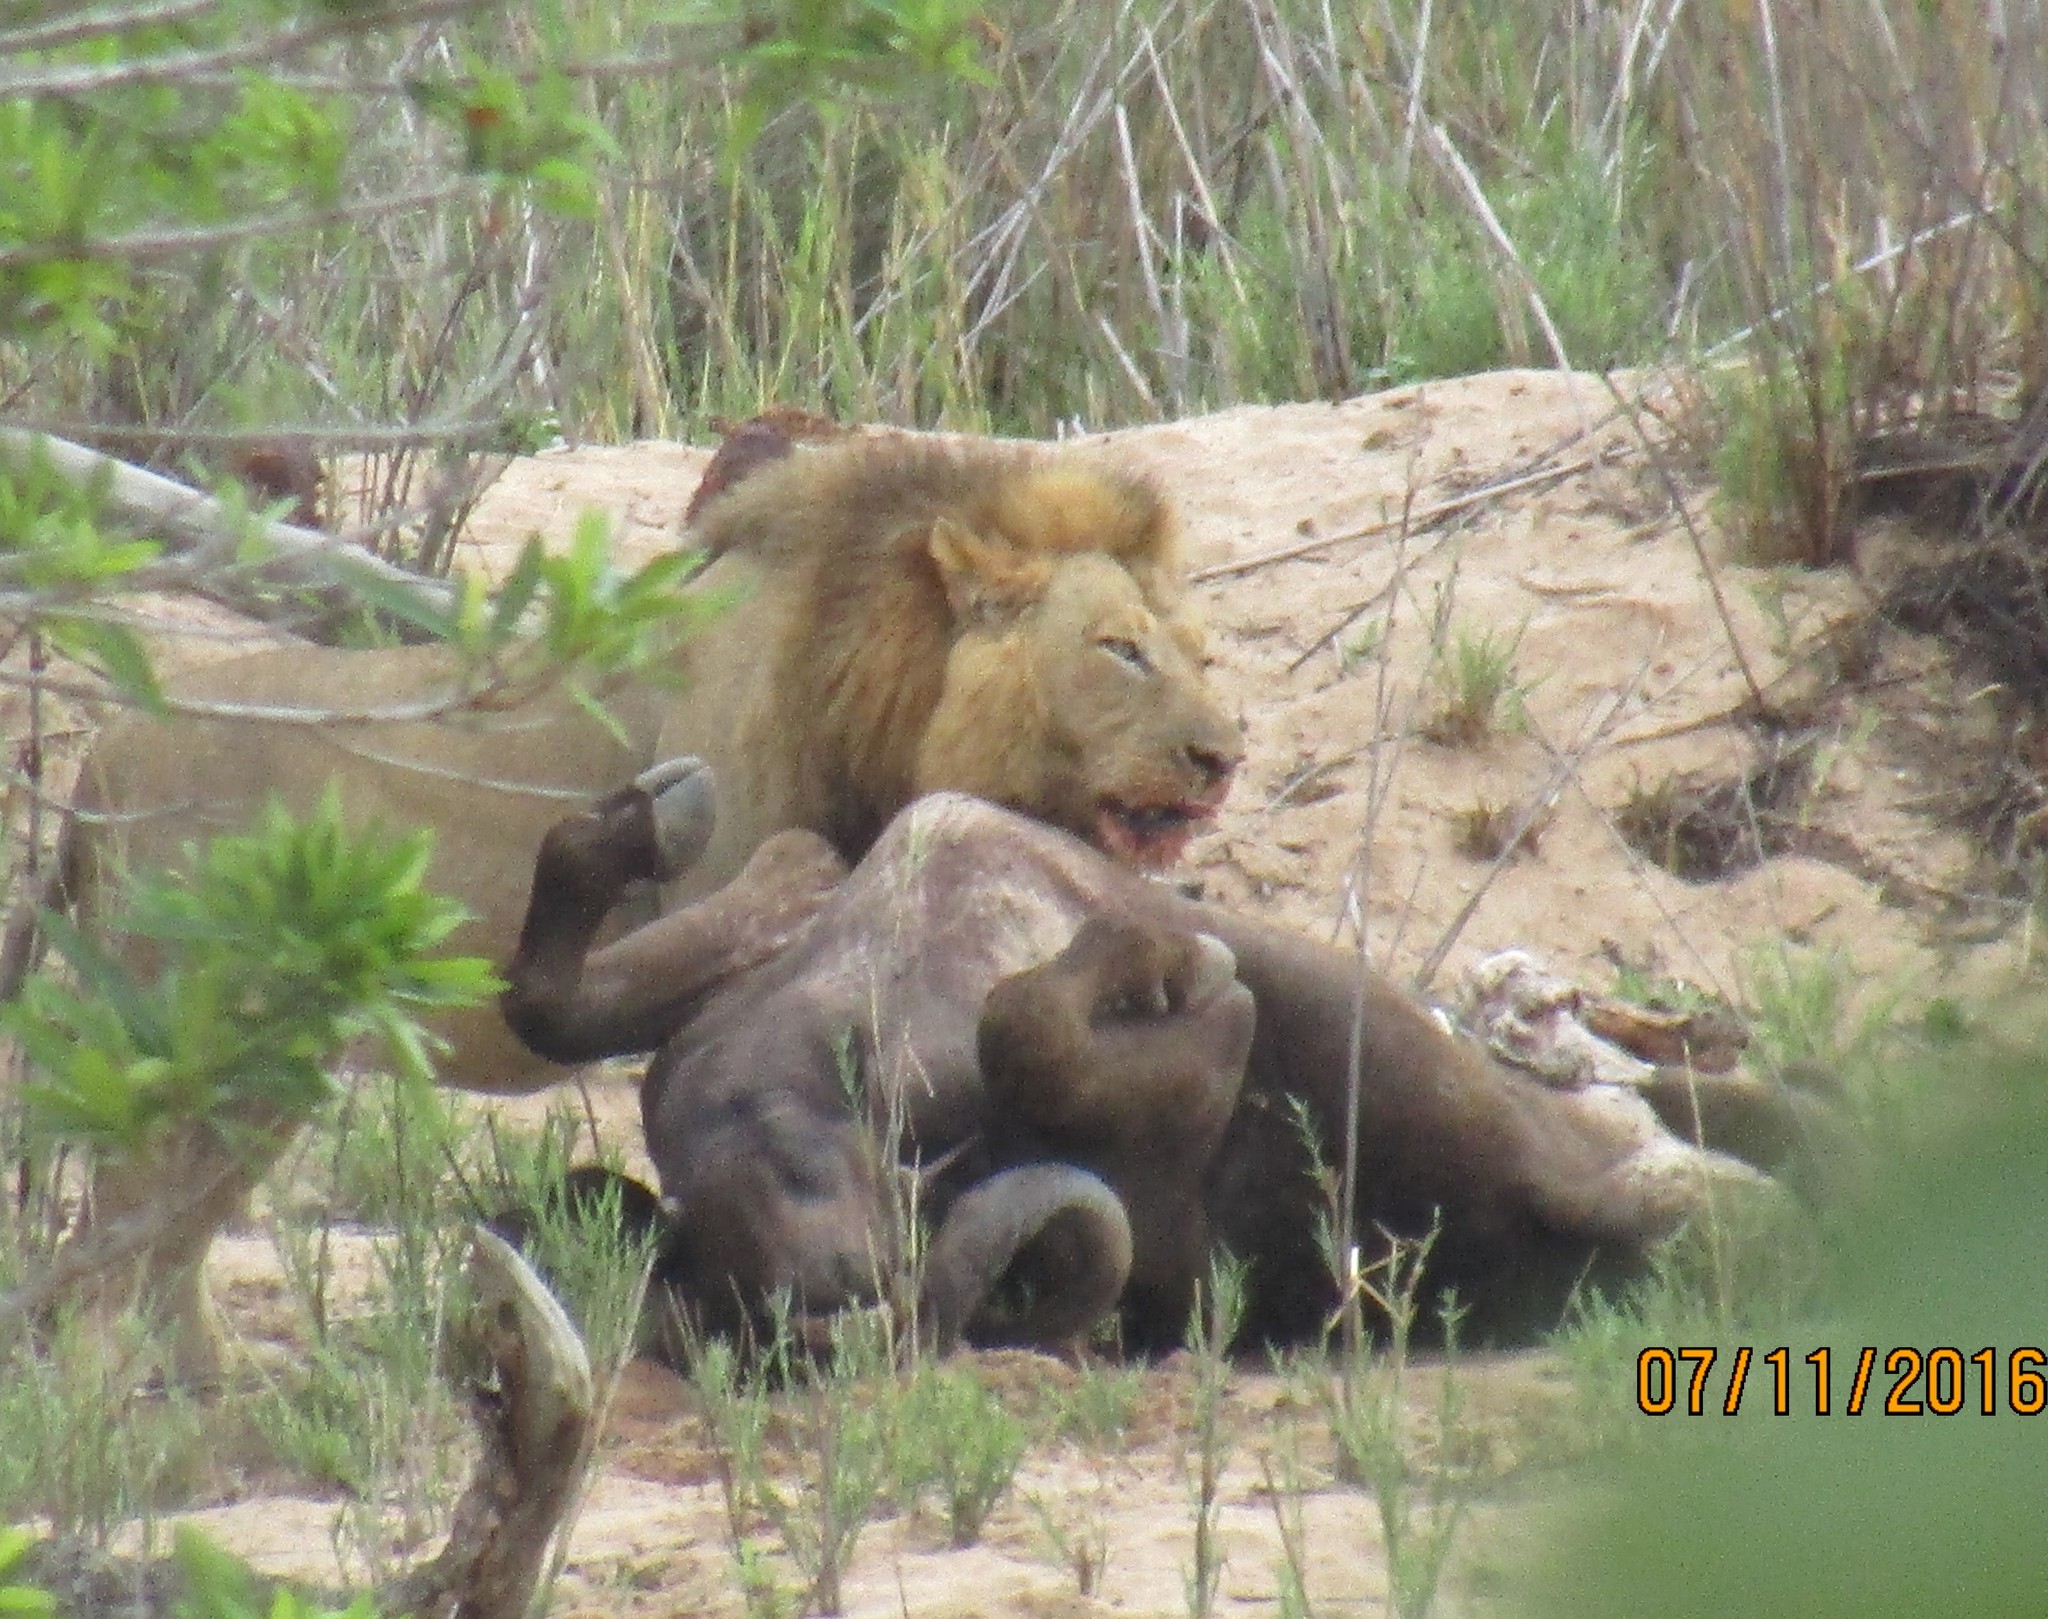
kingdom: Animalia
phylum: Chordata
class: Mammalia
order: Carnivora
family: Felidae
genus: Panthera
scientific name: Panthera leo
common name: Lion
